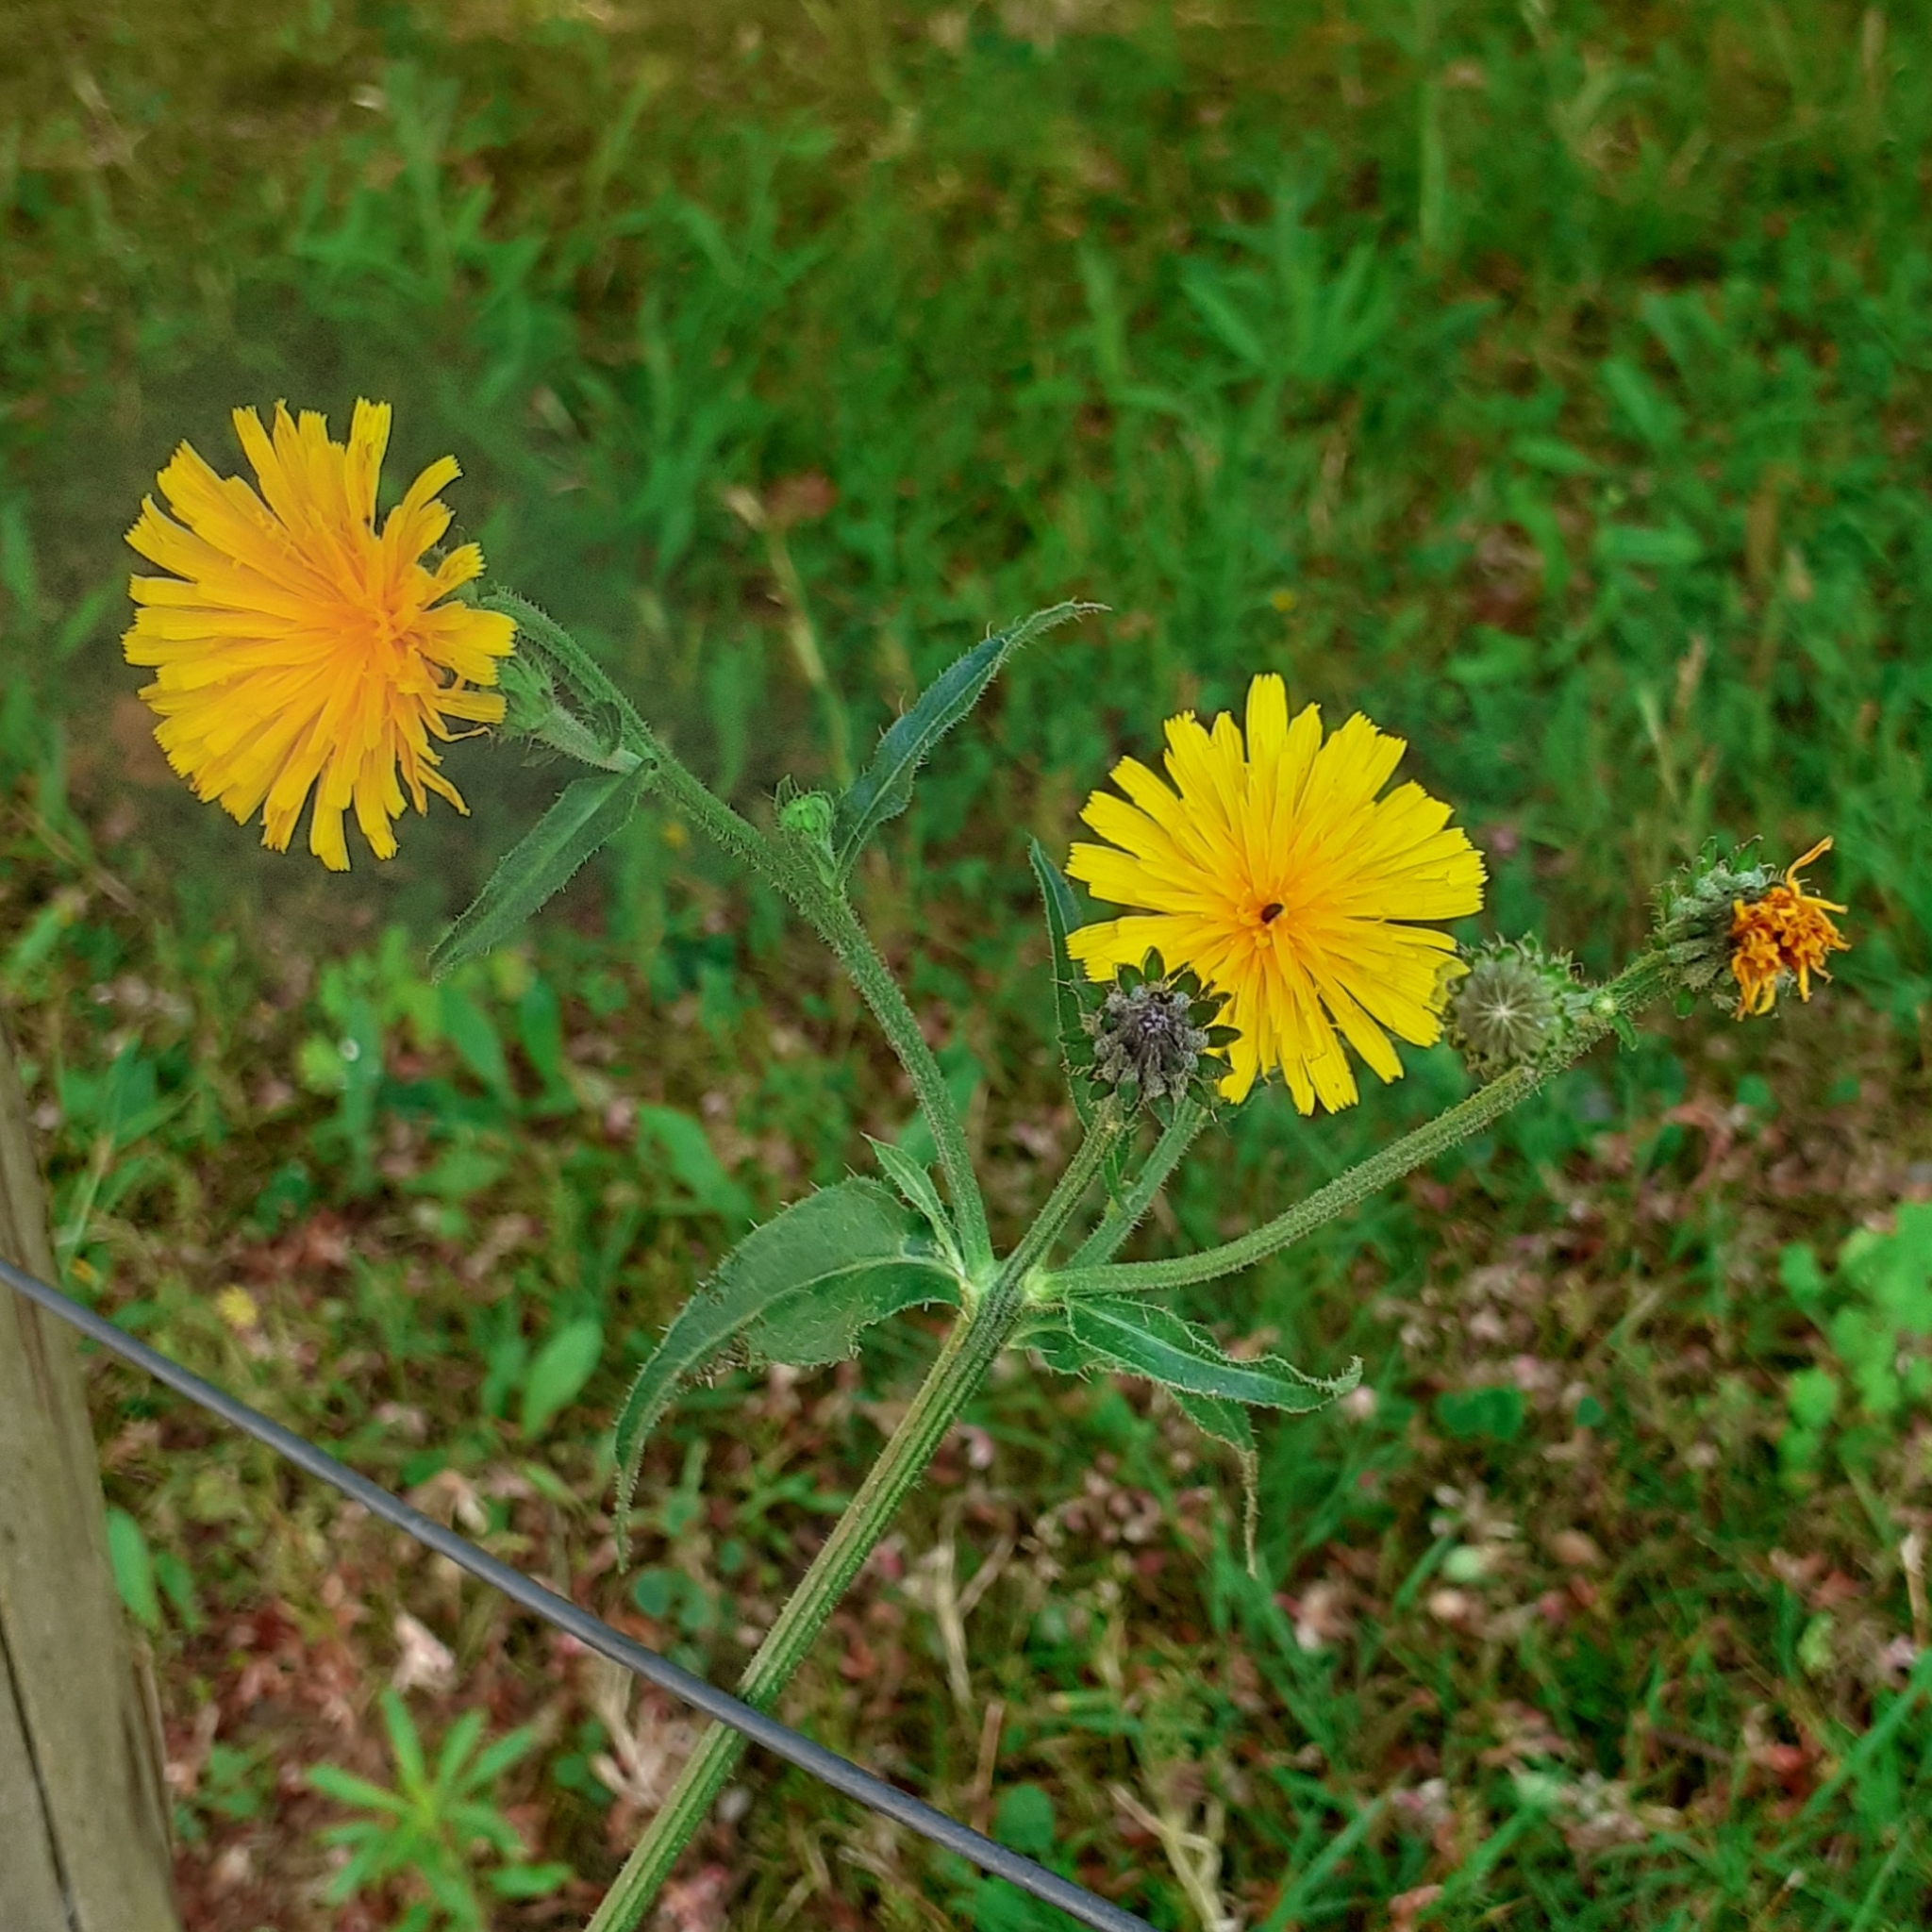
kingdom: Plantae
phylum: Tracheophyta
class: Magnoliopsida
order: Asterales
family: Asteraceae
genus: Picris
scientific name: Picris hieracioides
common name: Hawkweed oxtongue
